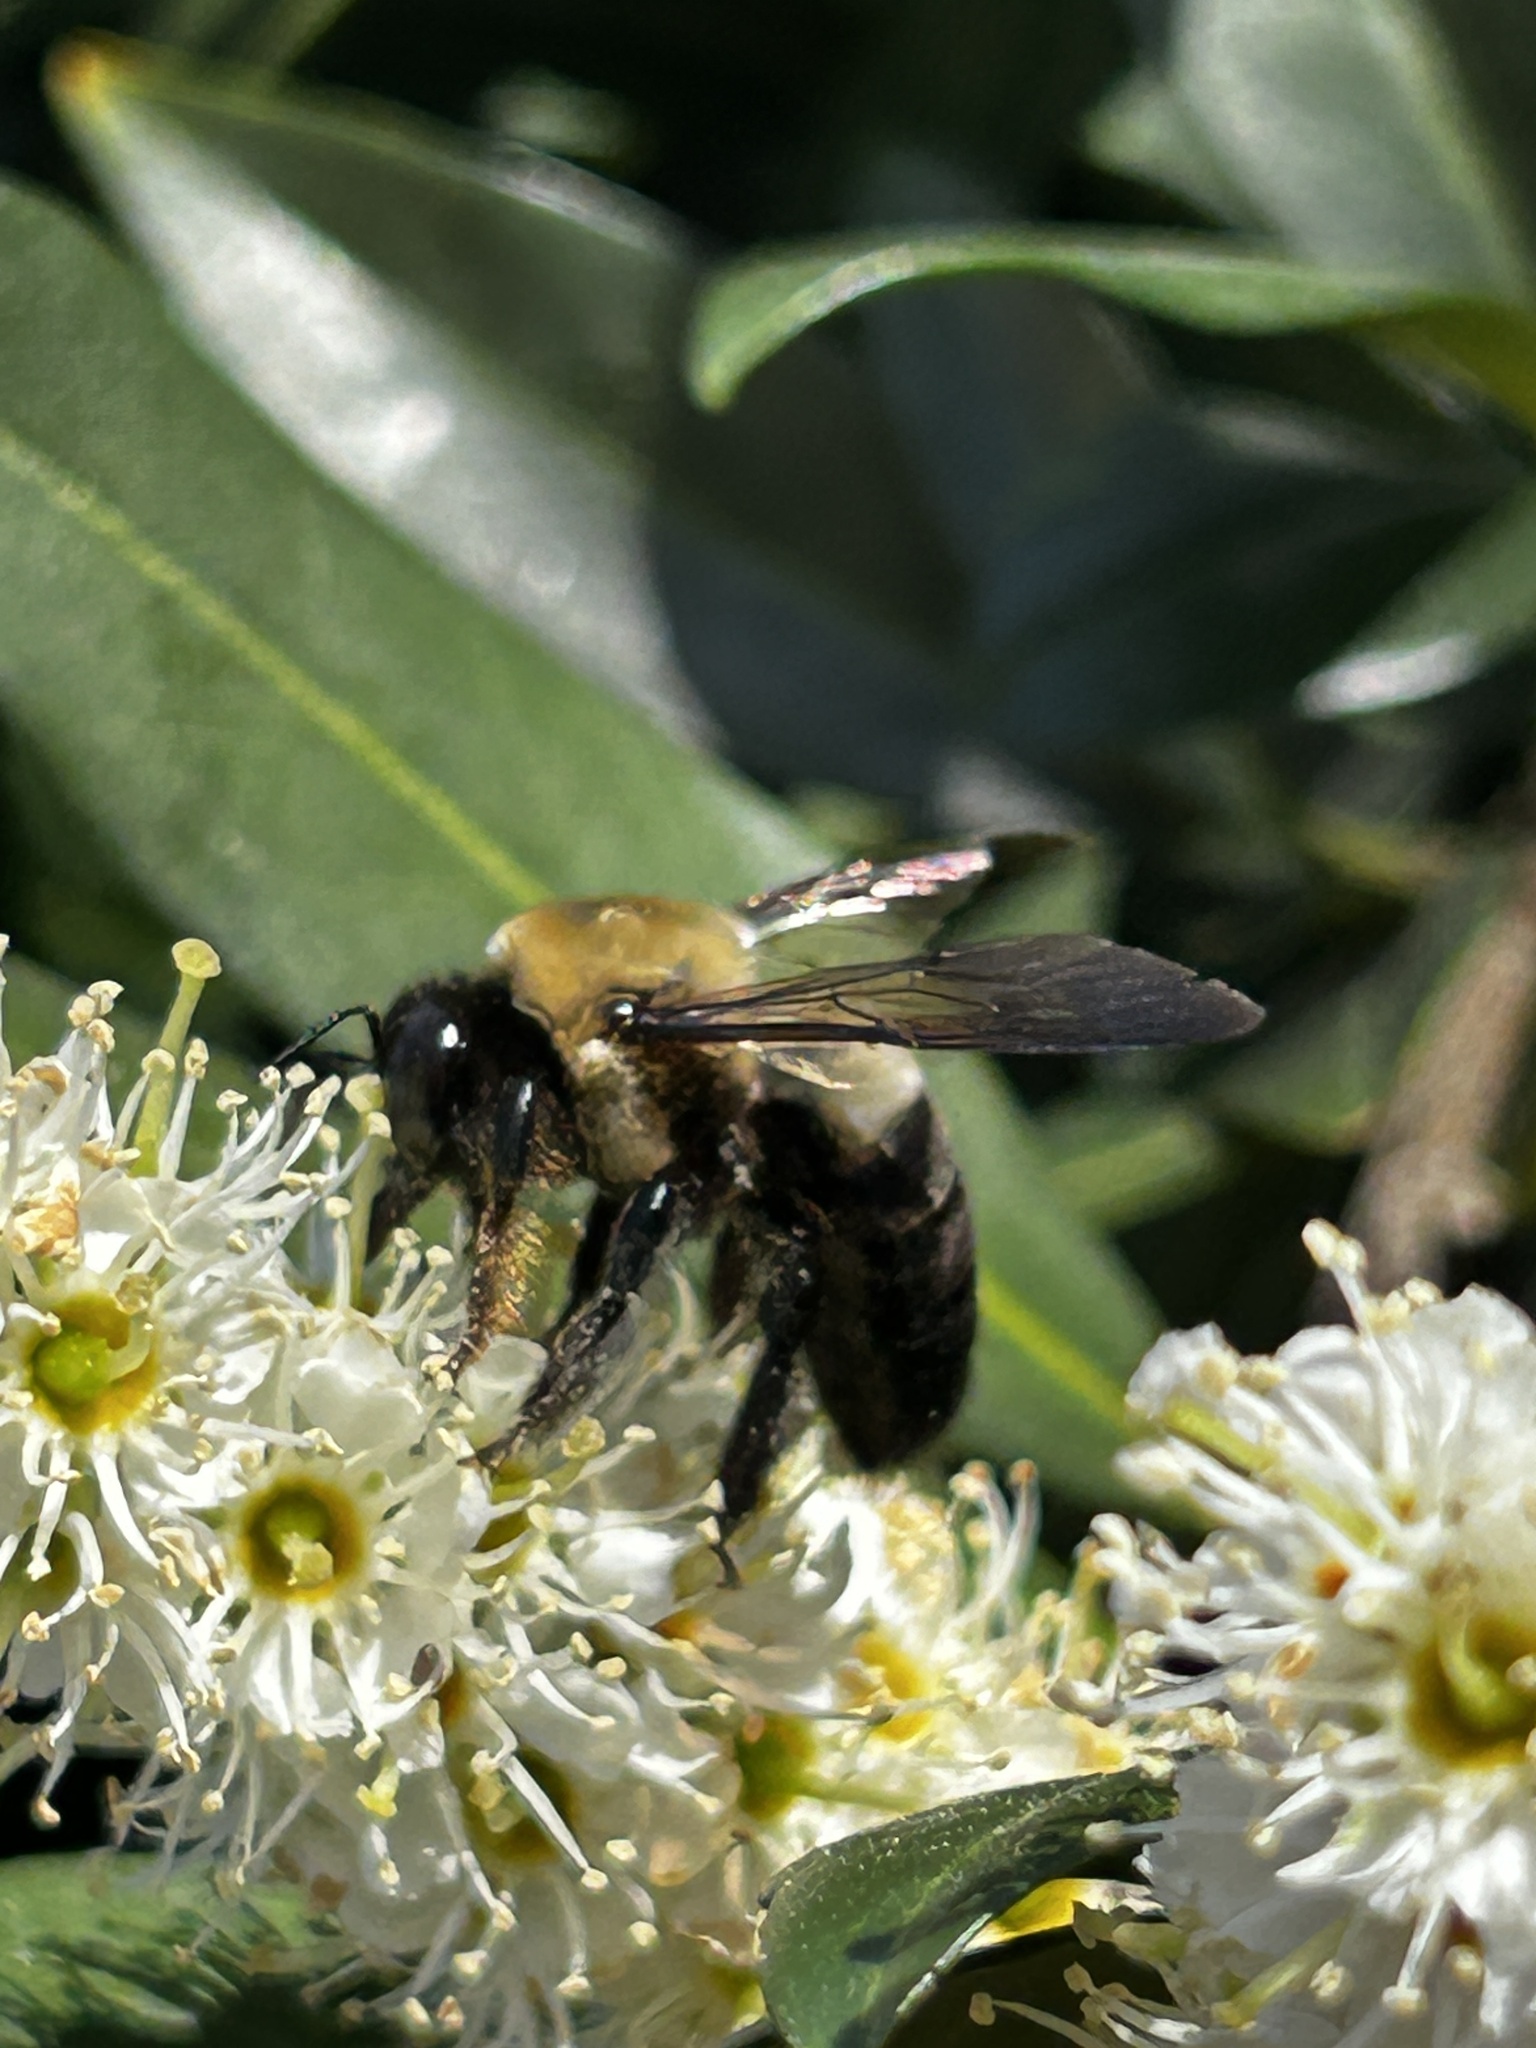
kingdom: Animalia
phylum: Arthropoda
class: Insecta
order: Hymenoptera
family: Apidae
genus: Xylocopa
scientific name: Xylocopa virginica
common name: Carpenter bee
